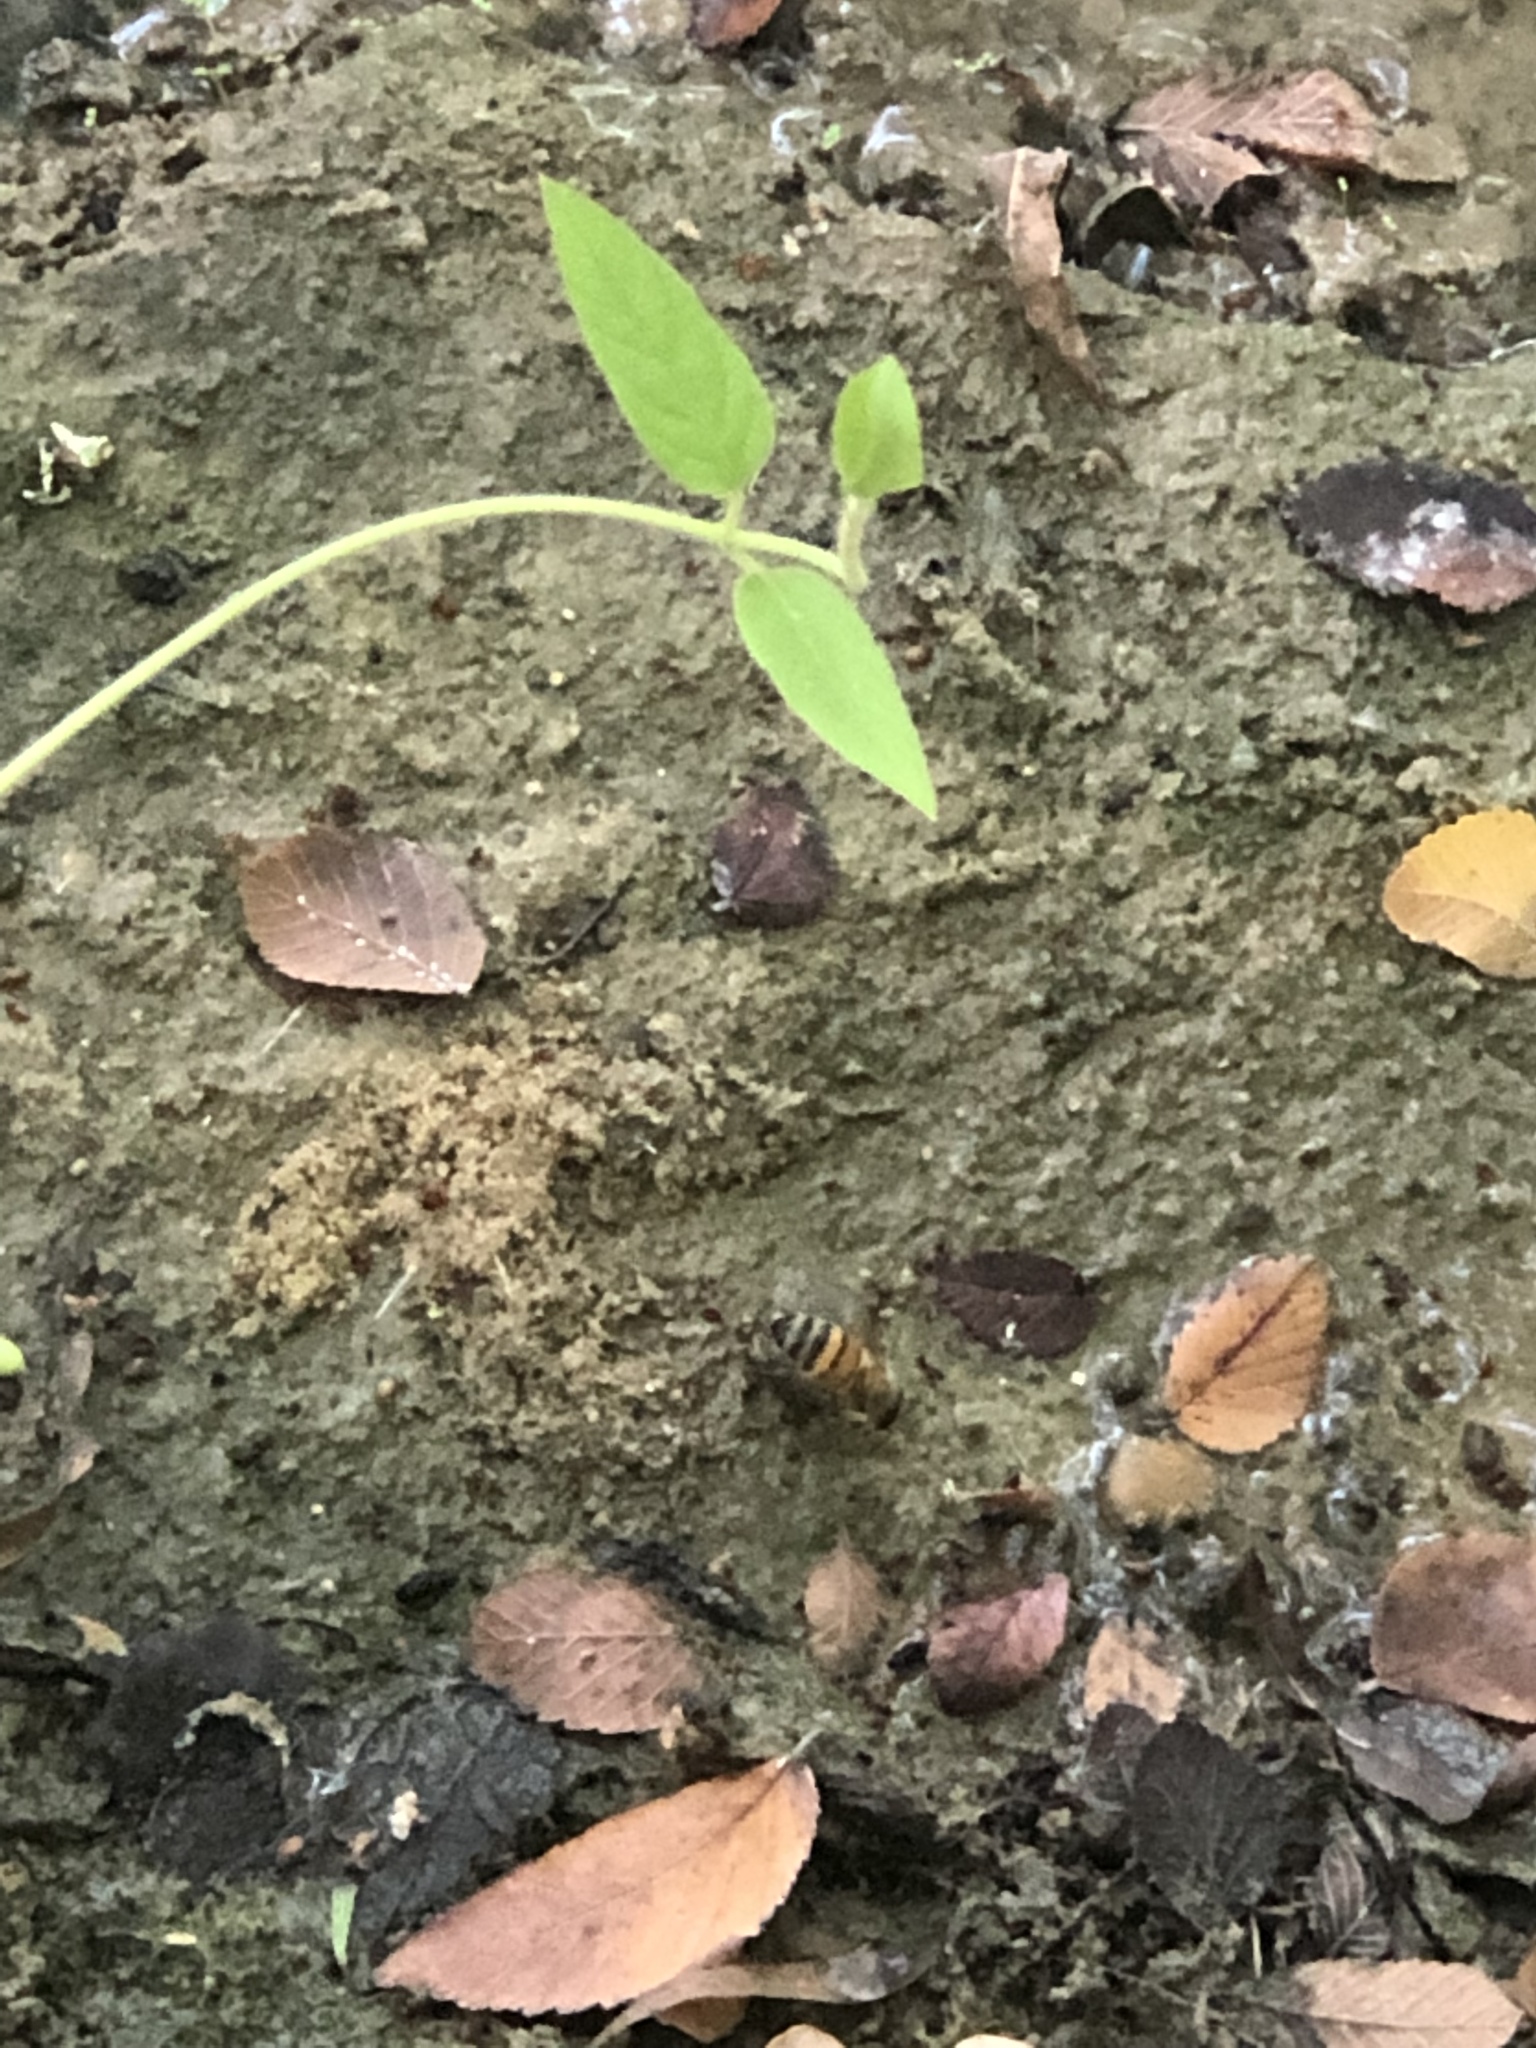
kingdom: Animalia
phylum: Arthropoda
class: Insecta
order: Hymenoptera
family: Apidae
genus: Apis
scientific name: Apis mellifera
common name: Honey bee
